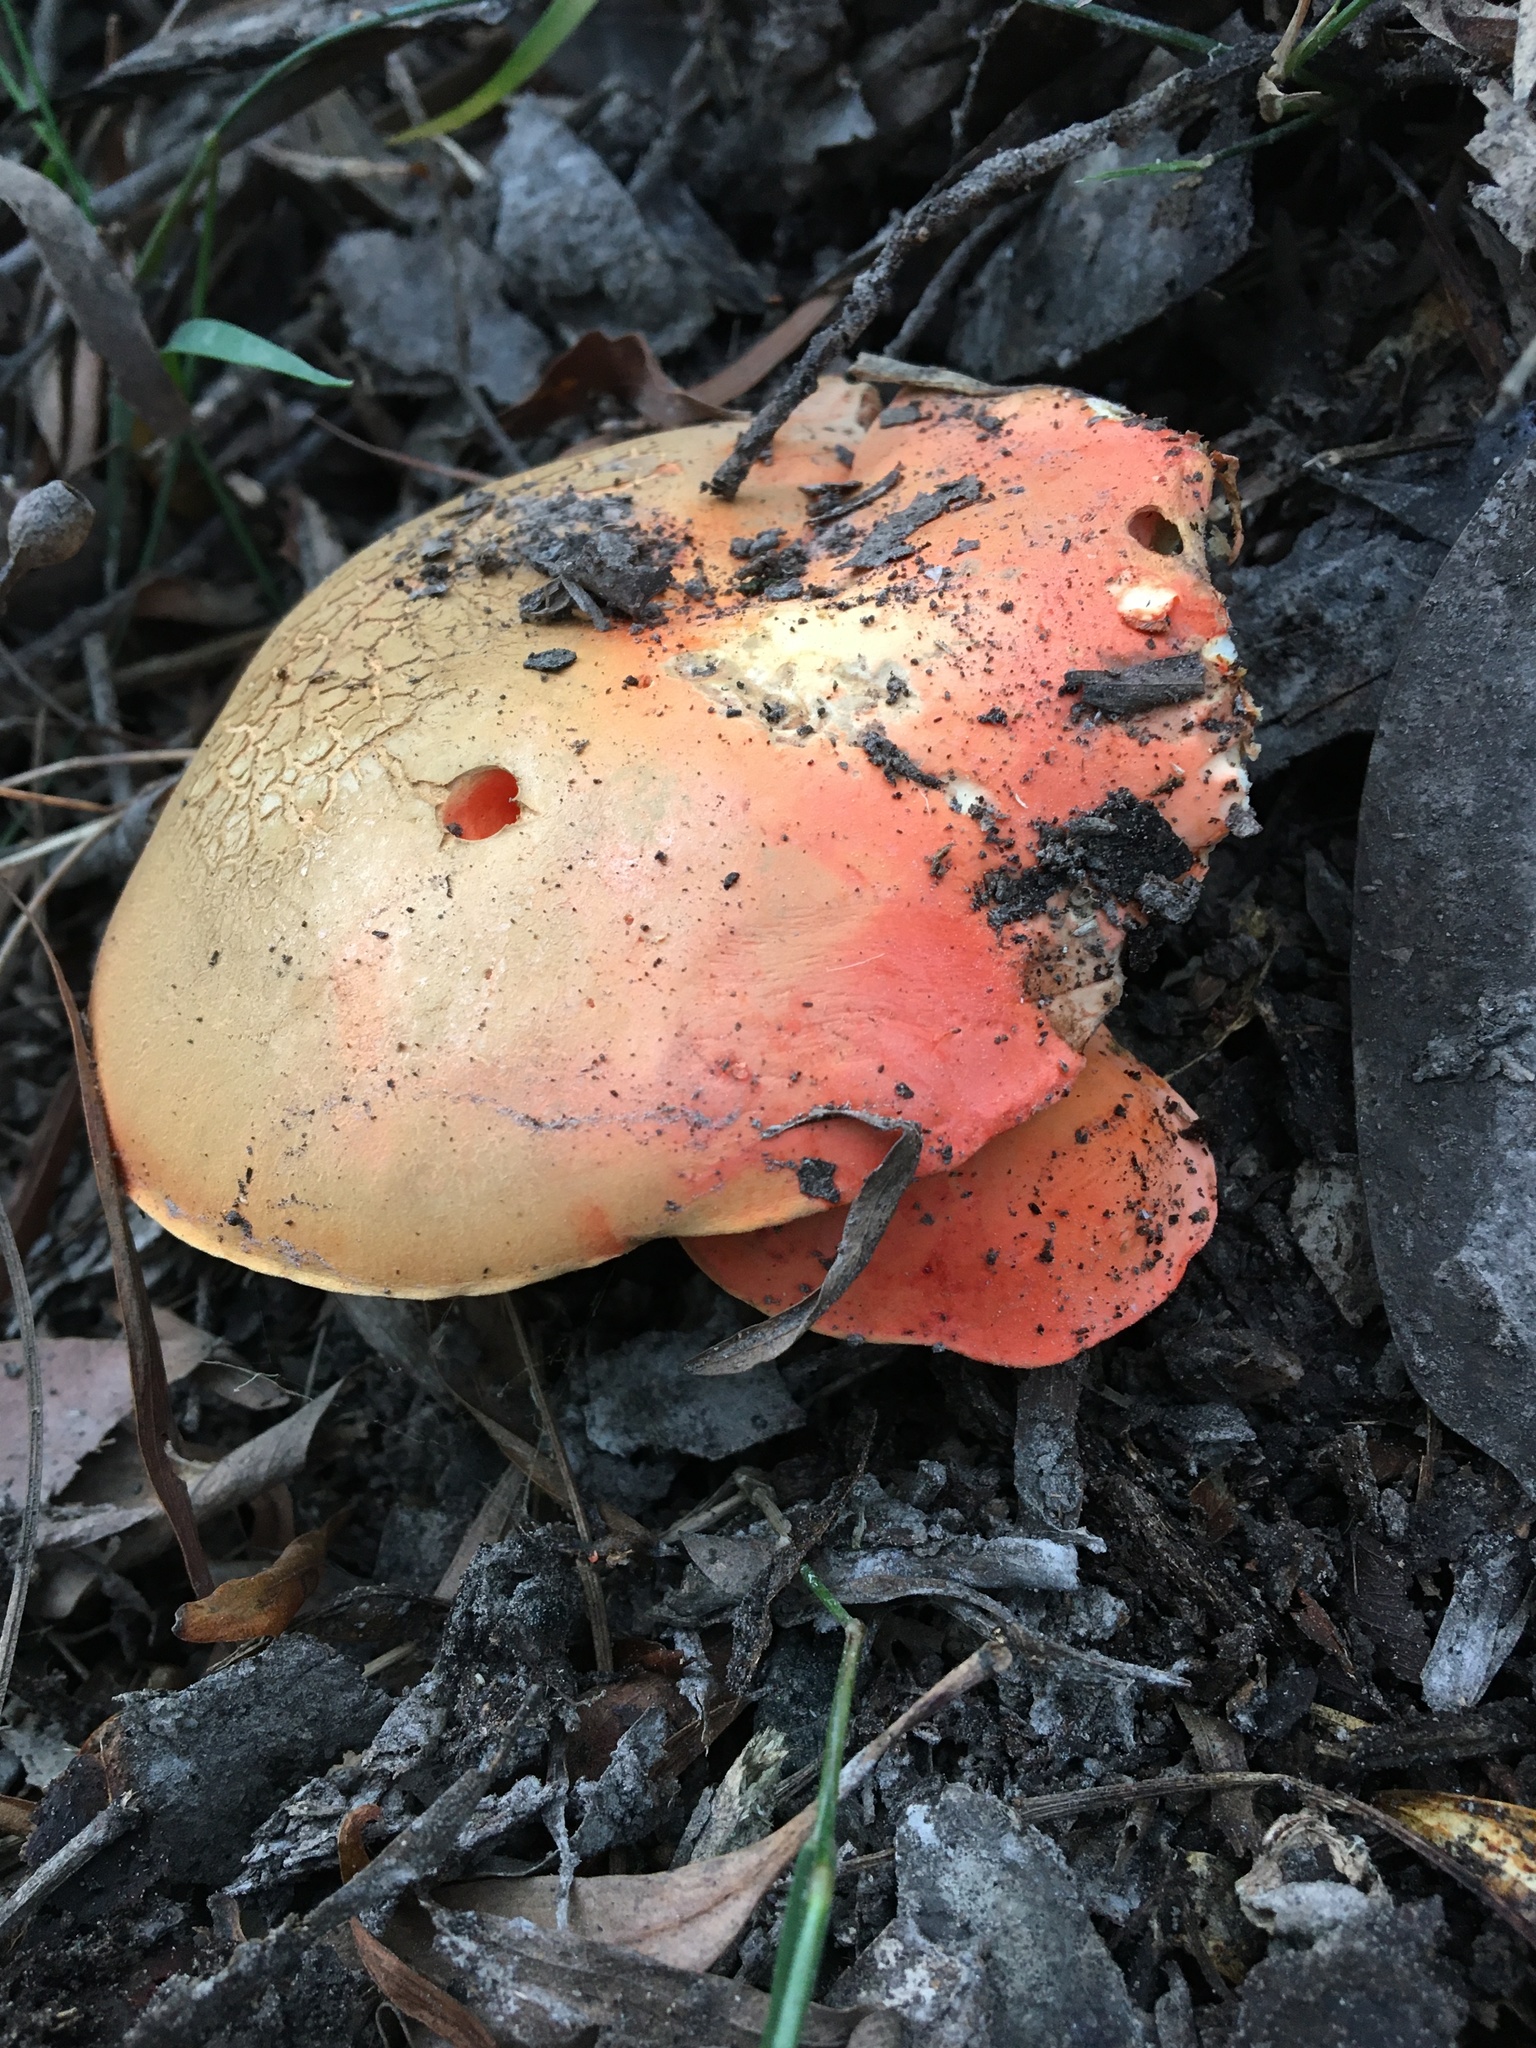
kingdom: Fungi
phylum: Basidiomycota
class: Agaricomycetes
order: Boletales
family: Boletaceae
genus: Tylopilus
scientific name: Tylopilus balloui
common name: Burnt-orange bolete
